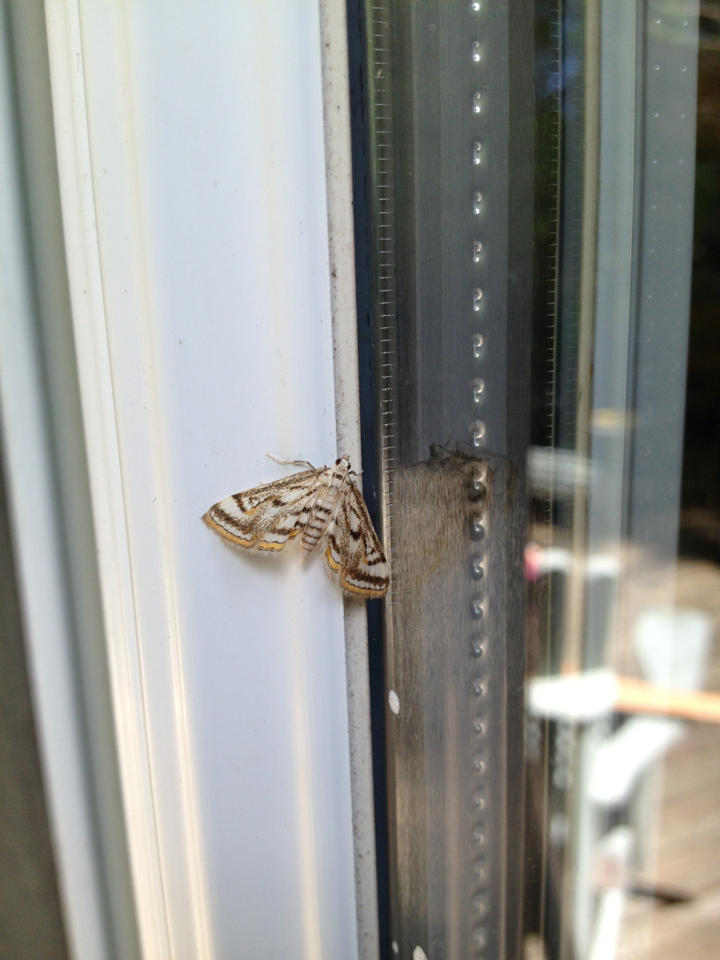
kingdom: Animalia
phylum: Arthropoda
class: Insecta
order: Lepidoptera
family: Crambidae
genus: Parapoynx
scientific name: Parapoynx badiusalis
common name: Chestnut-marked pondweed moth
